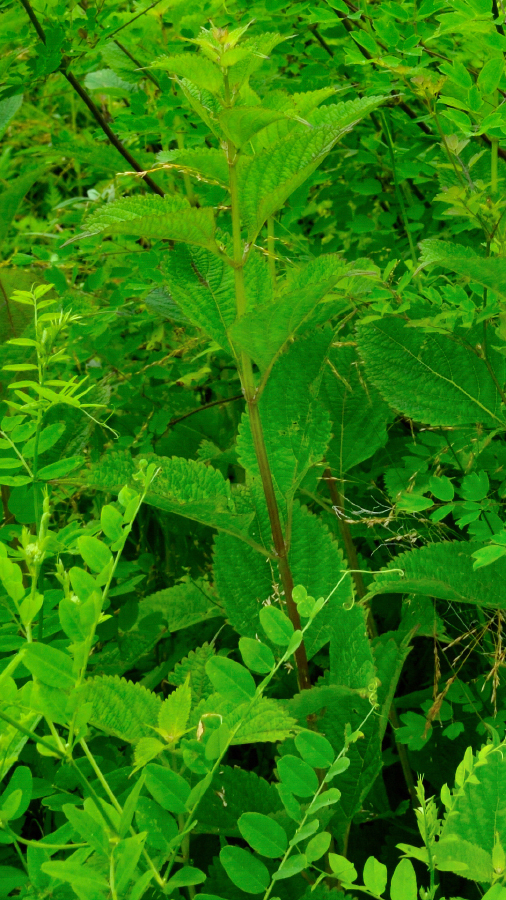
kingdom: Plantae
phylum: Tracheophyta
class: Magnoliopsida
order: Lamiales
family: Lamiaceae
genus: Isodon
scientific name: Isodon japonicus
